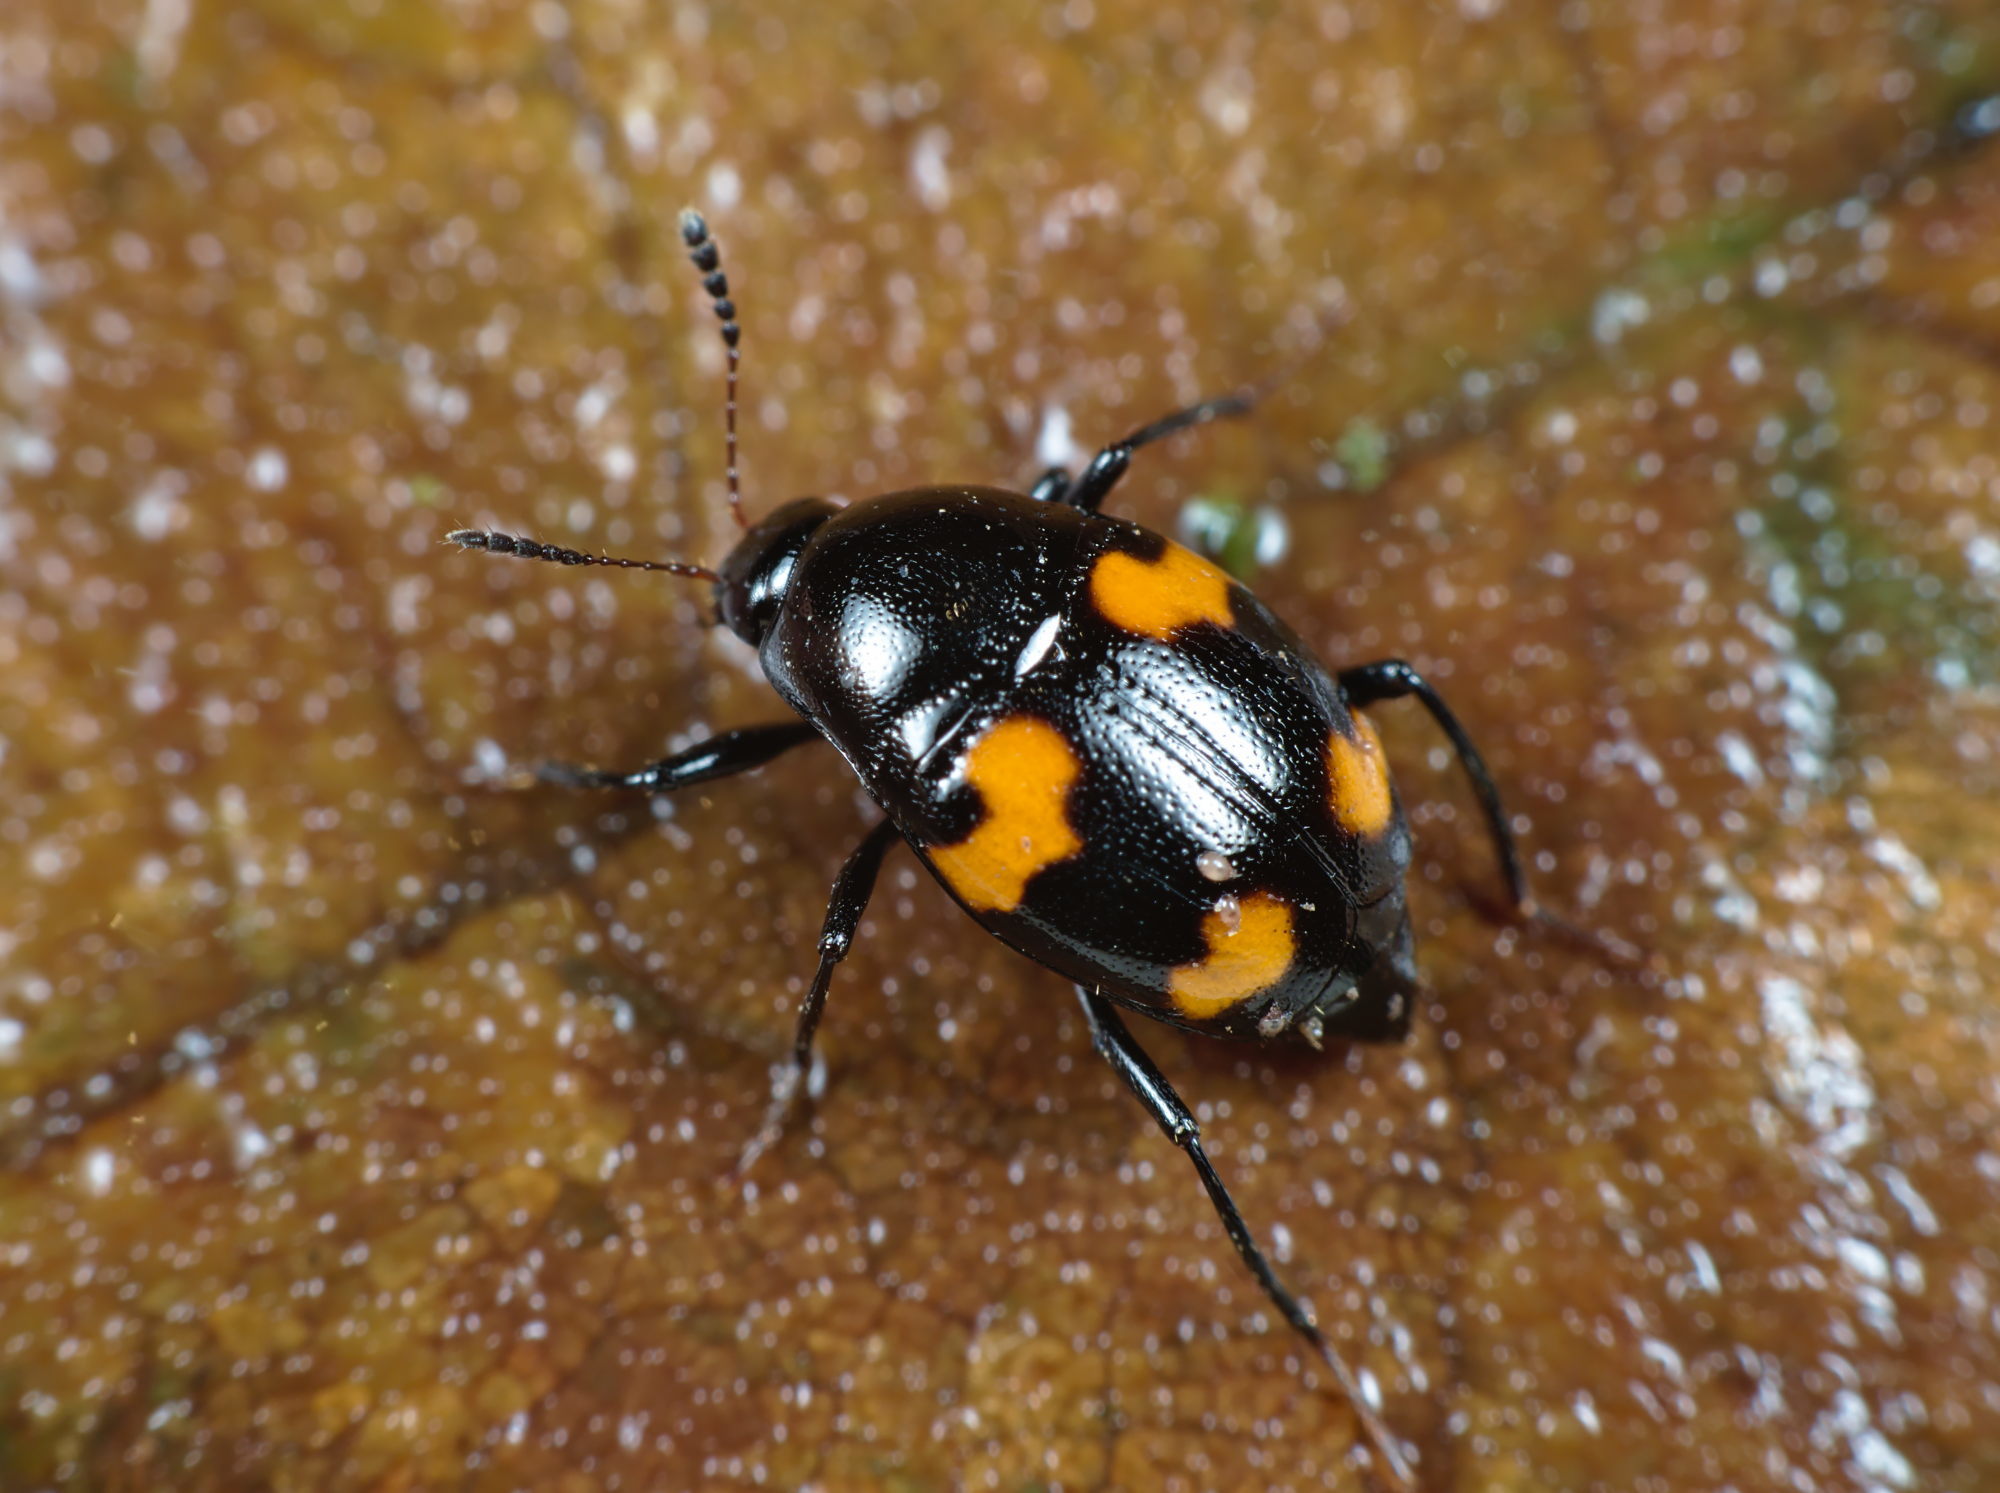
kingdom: Animalia
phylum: Arthropoda
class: Insecta
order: Coleoptera
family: Staphylinidae
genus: Scaphidium
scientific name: Scaphidium quadrimaculatum
